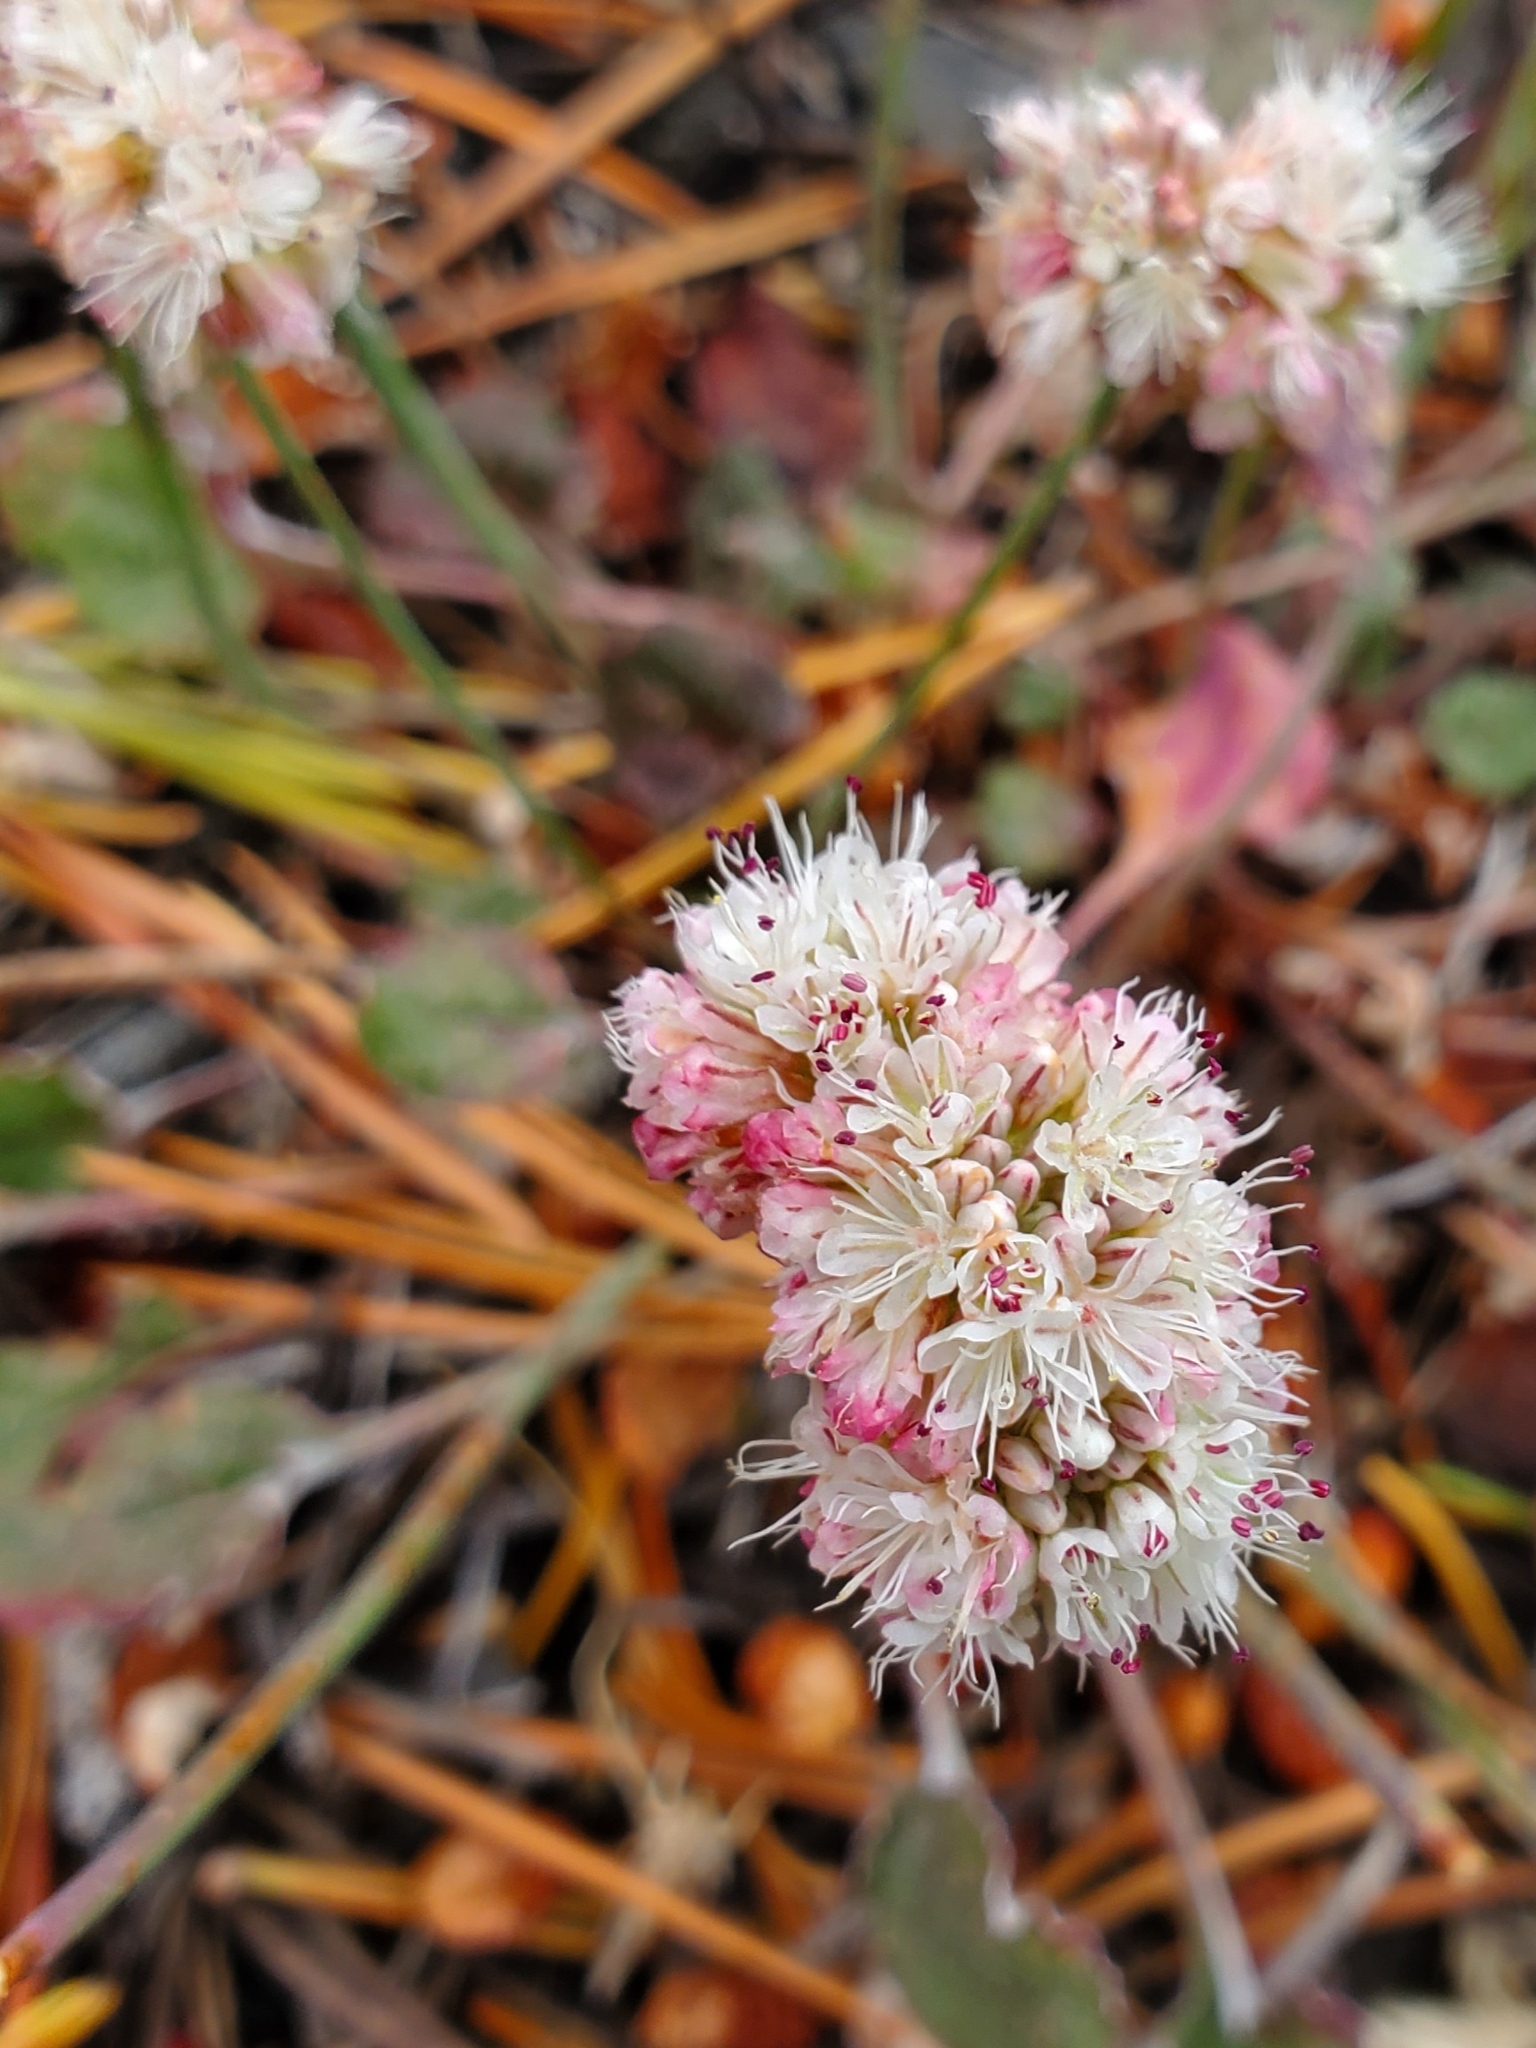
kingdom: Plantae
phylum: Tracheophyta
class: Magnoliopsida
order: Caryophyllales
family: Polygonaceae
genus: Eriogonum
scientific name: Eriogonum nudum
